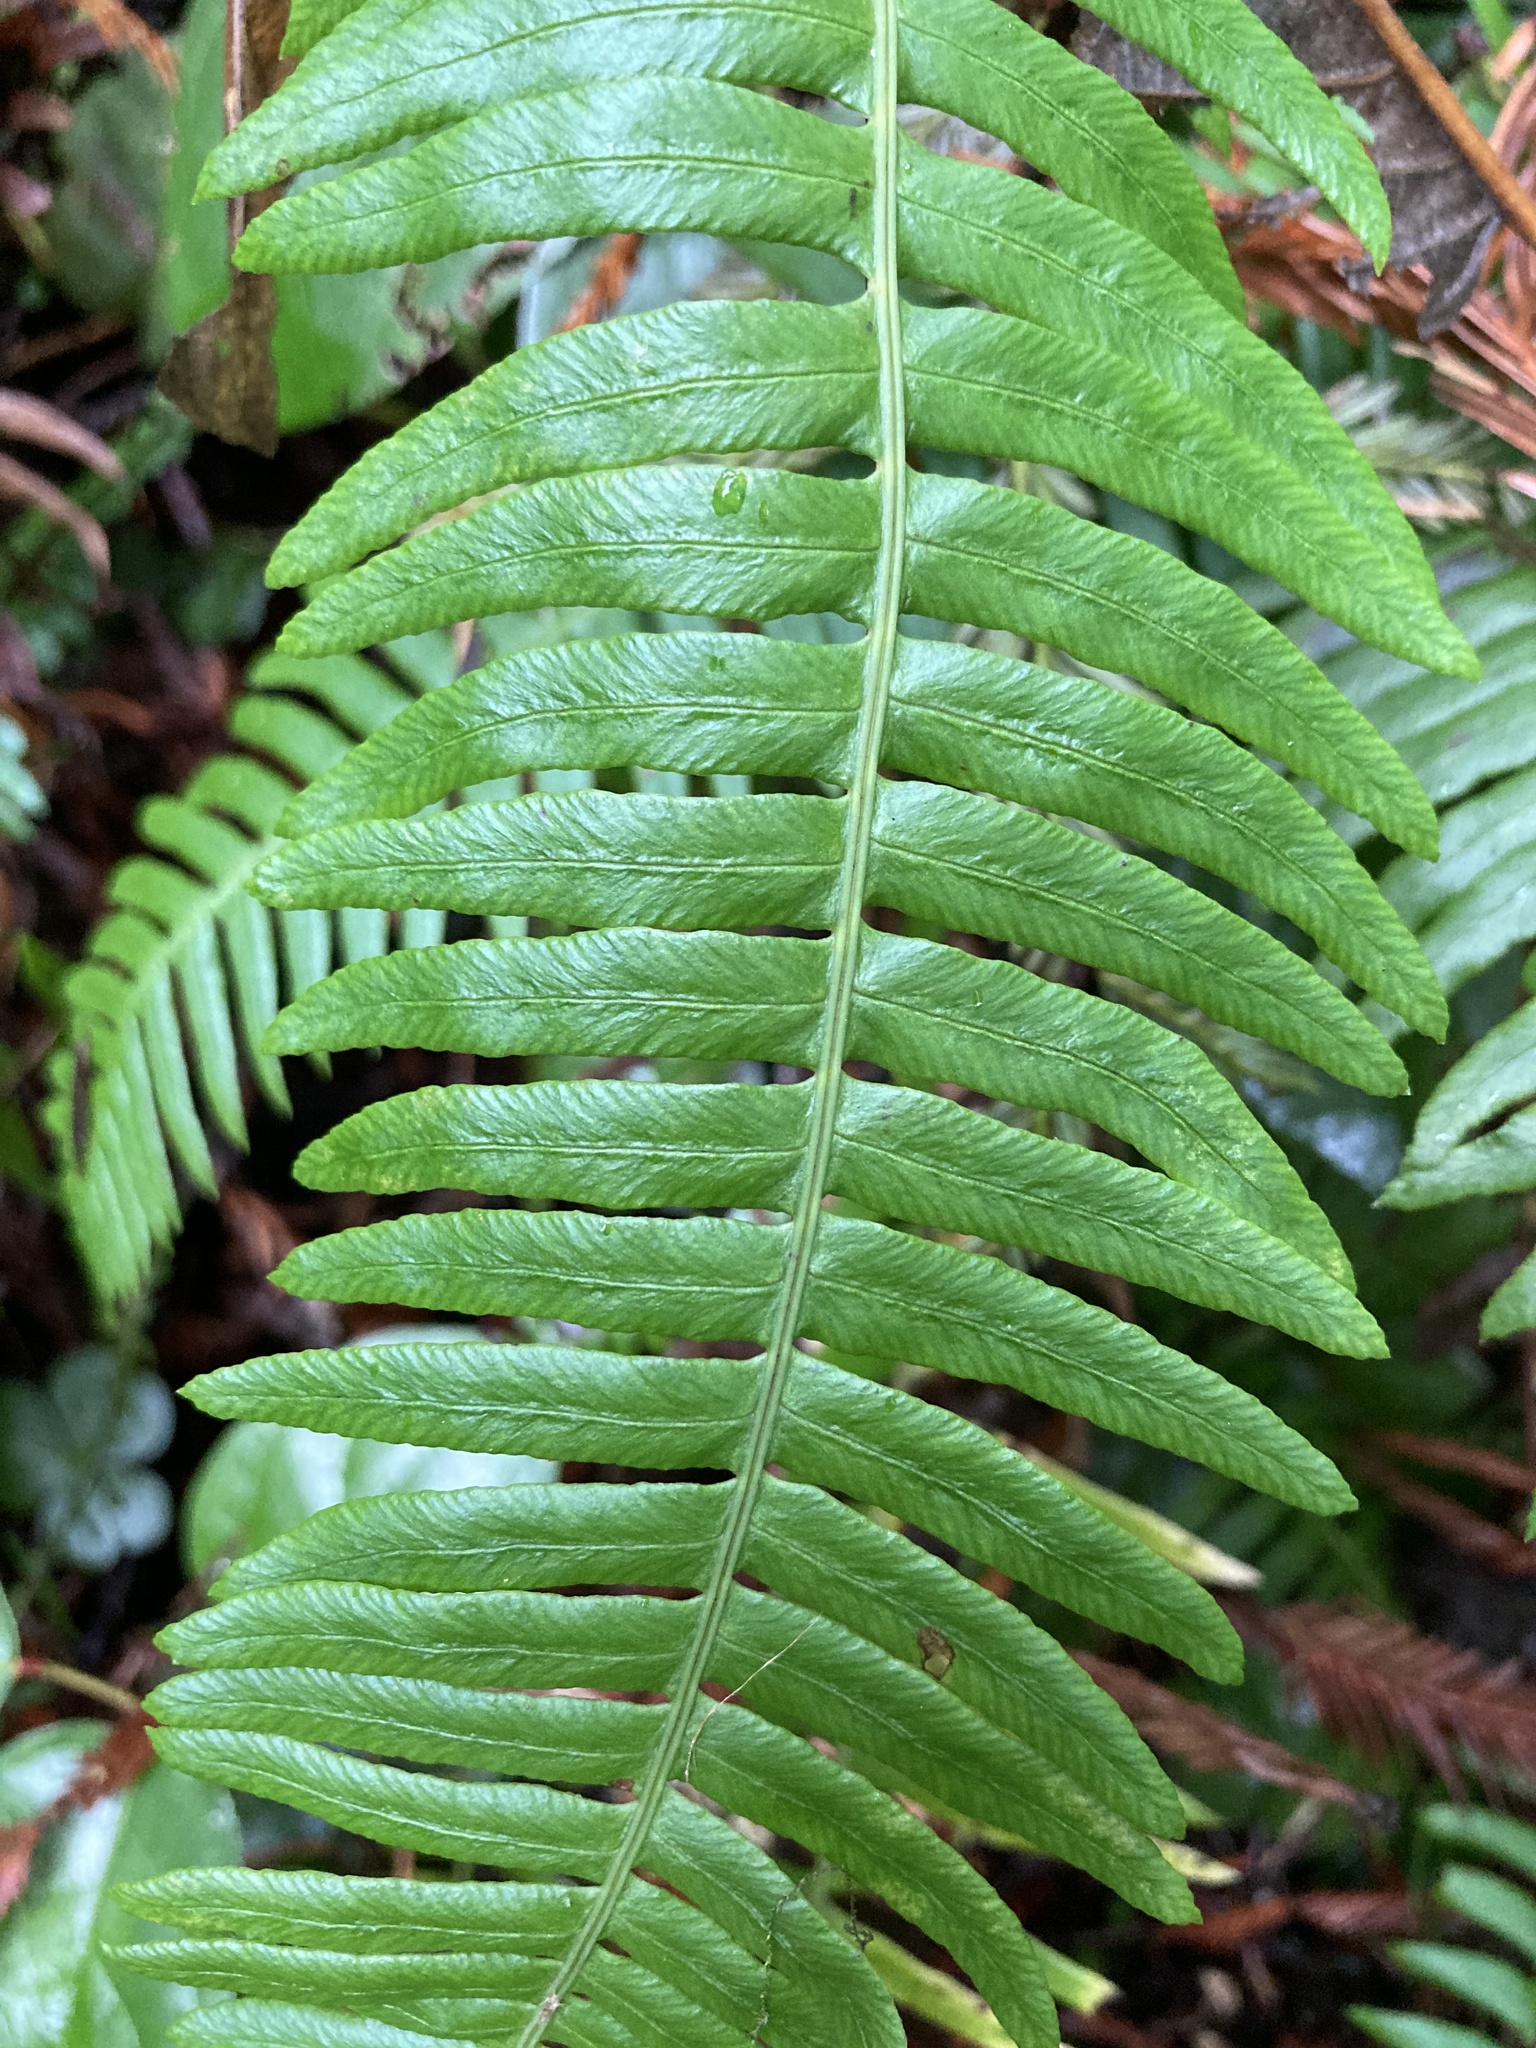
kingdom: Plantae
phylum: Tracheophyta
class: Polypodiopsida
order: Polypodiales
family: Blechnaceae
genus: Struthiopteris
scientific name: Struthiopteris spicant
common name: Deer fern
